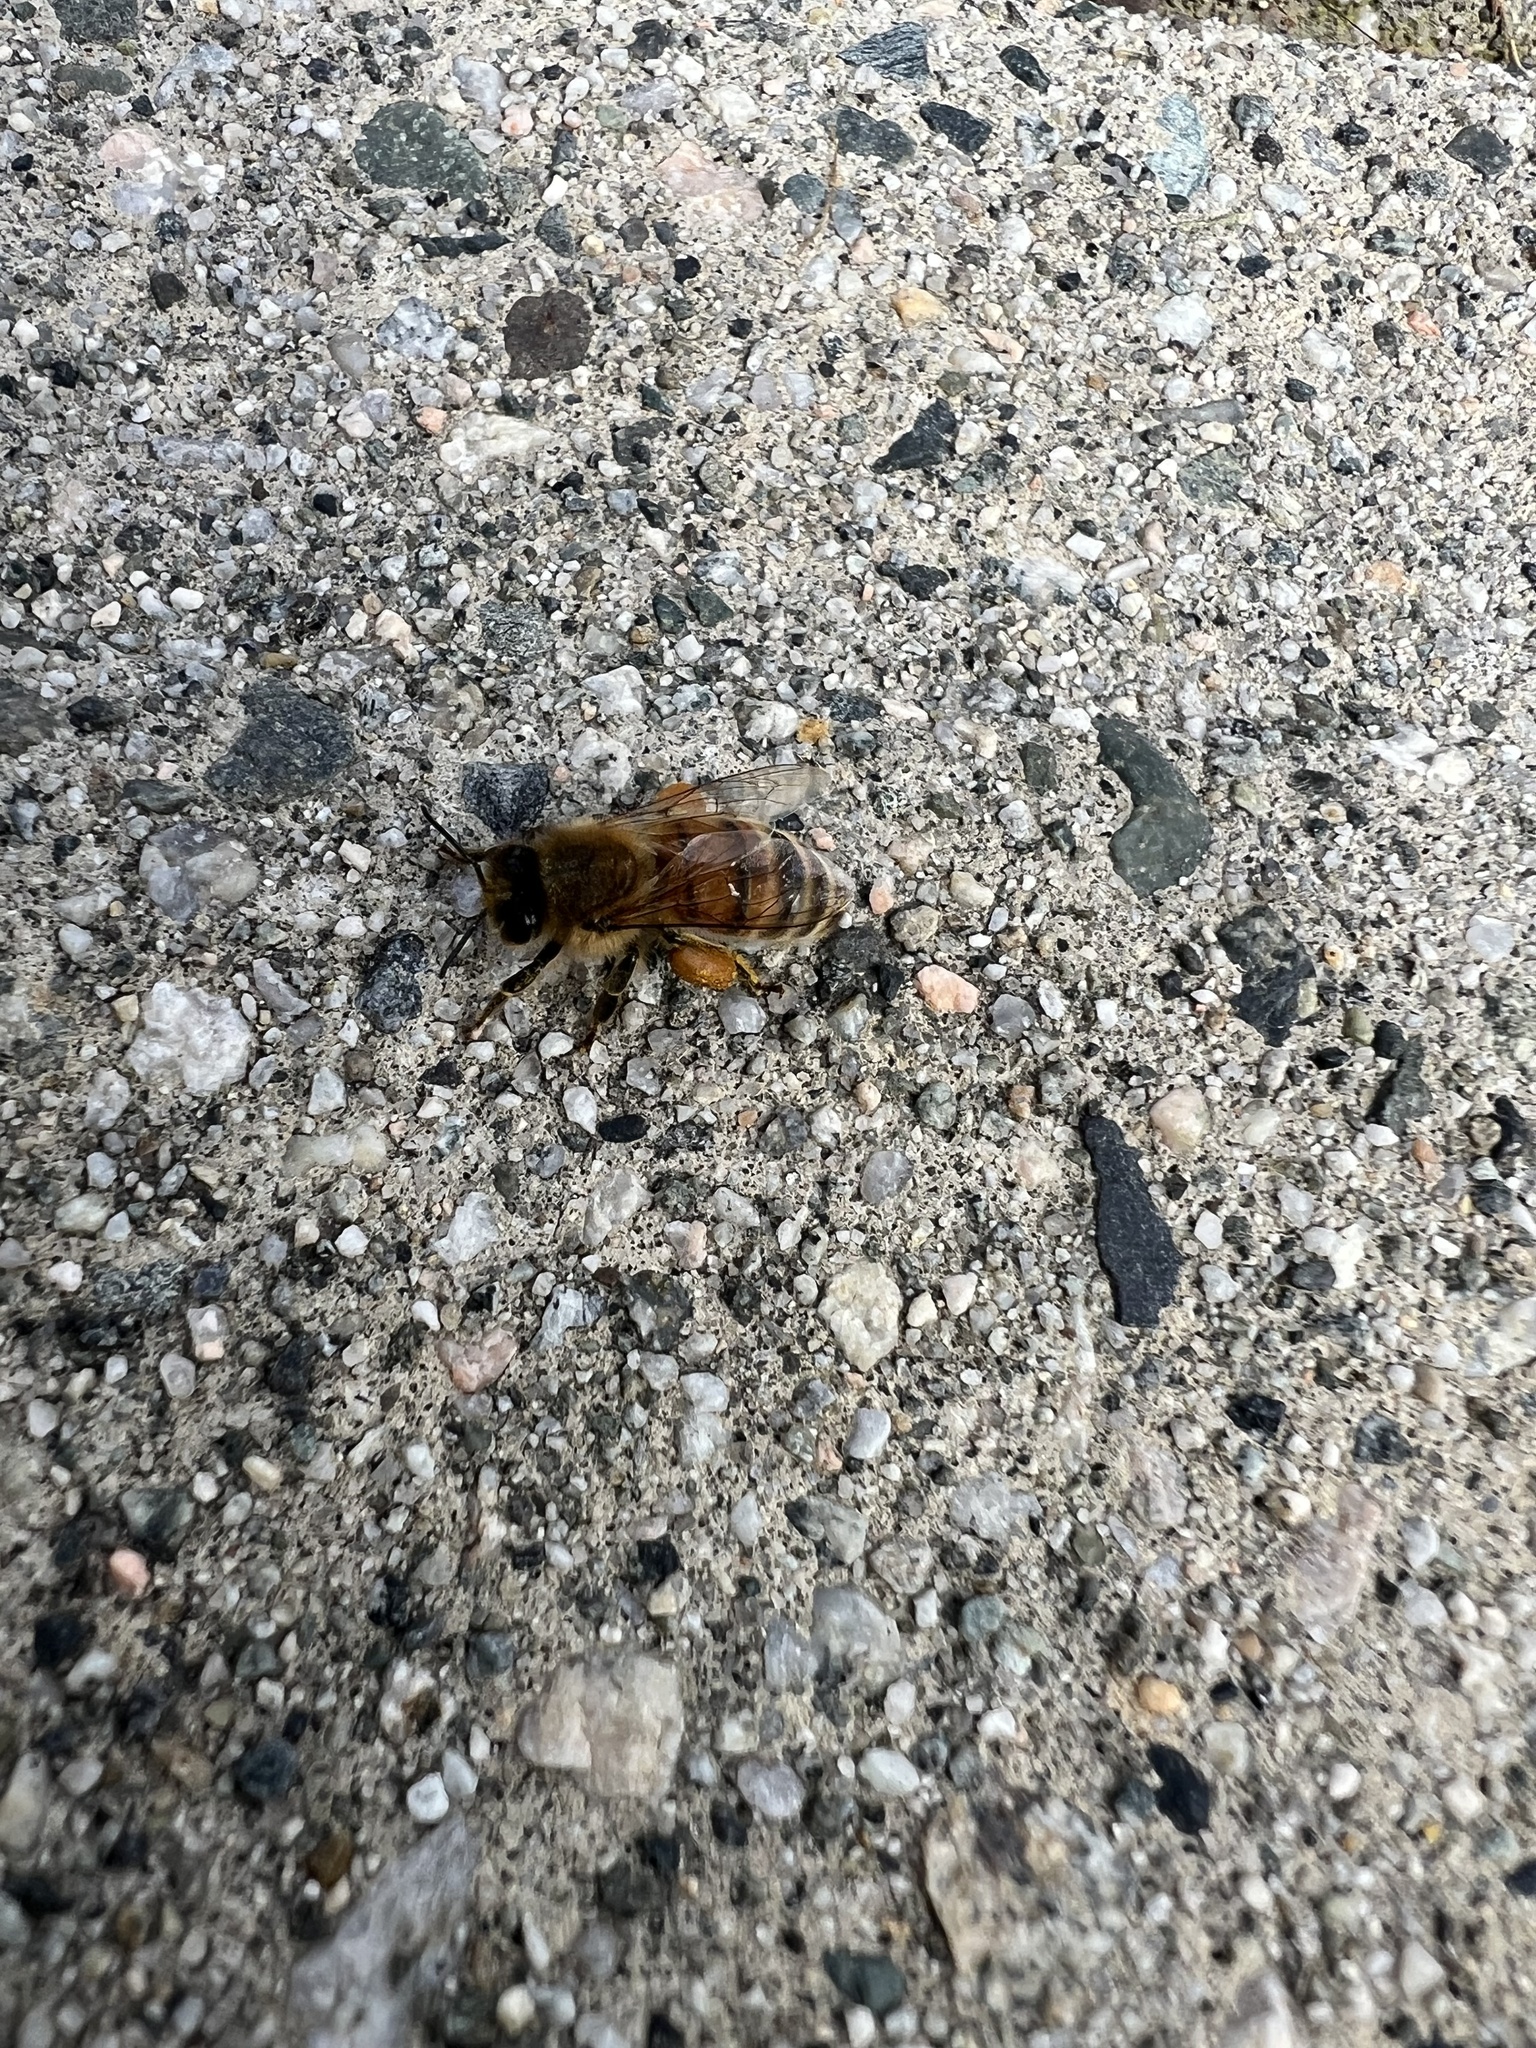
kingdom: Animalia
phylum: Arthropoda
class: Insecta
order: Hymenoptera
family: Apidae
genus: Apis
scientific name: Apis mellifera
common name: Honey bee
